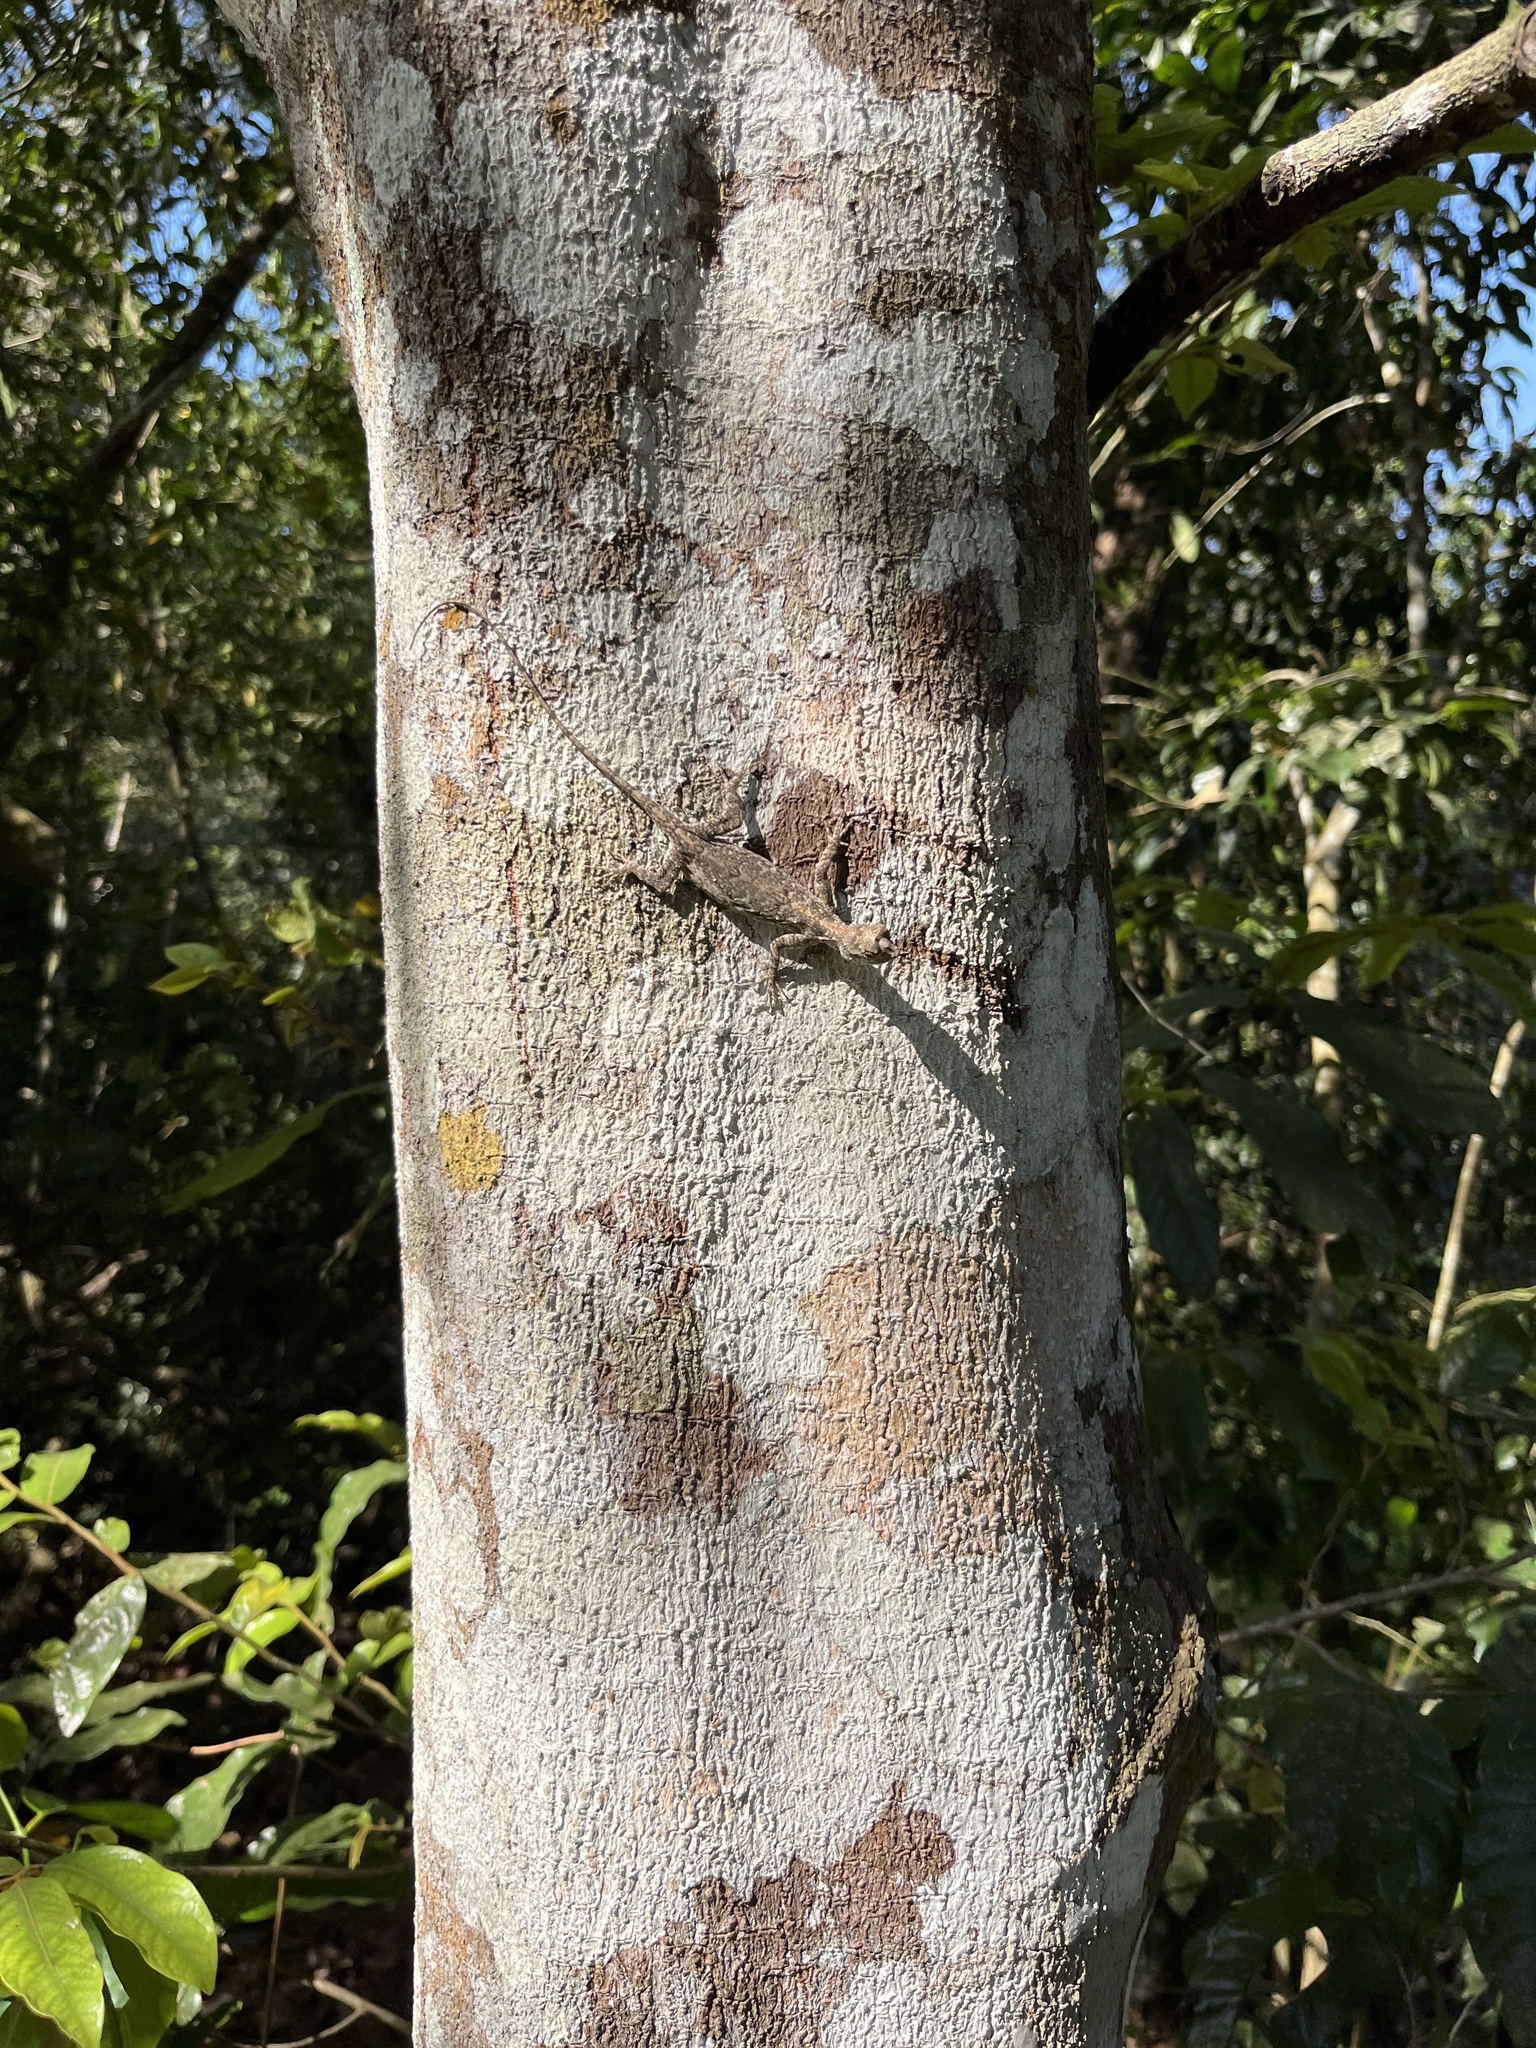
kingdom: Animalia
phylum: Chordata
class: Squamata
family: Agamidae
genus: Draco
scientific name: Draco maculatus
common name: Spotted flying dragon
